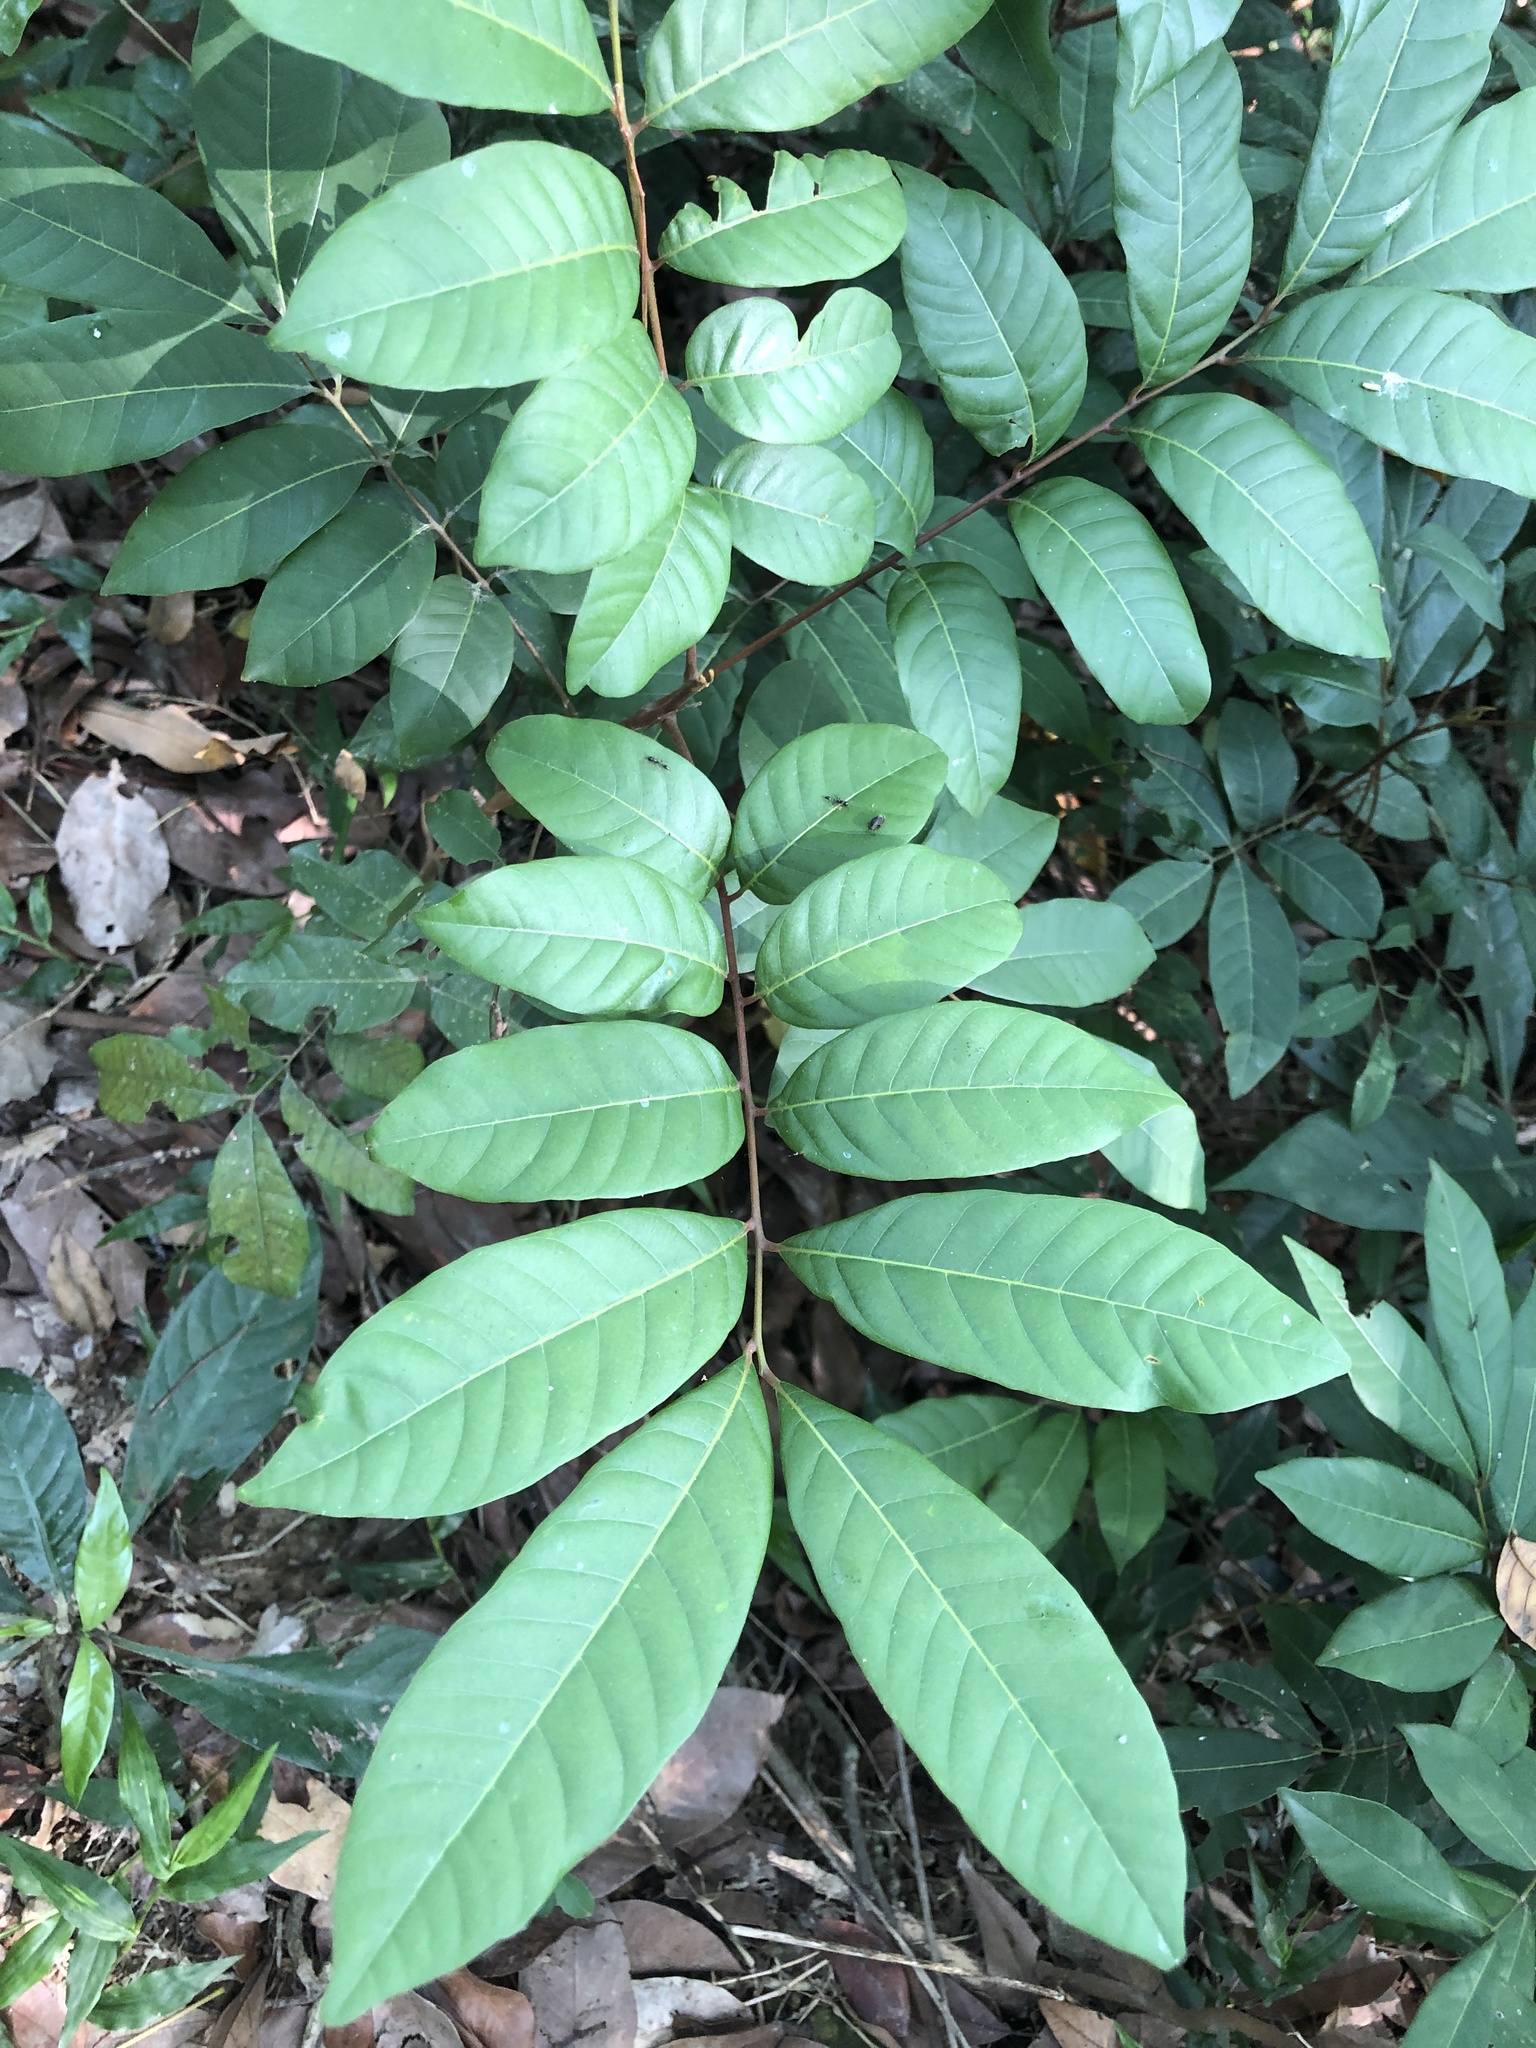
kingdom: Plantae
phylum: Tracheophyta
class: Magnoliopsida
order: Sapindales
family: Sapindaceae
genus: Dimocarpus
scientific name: Dimocarpus longan
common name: Longan
